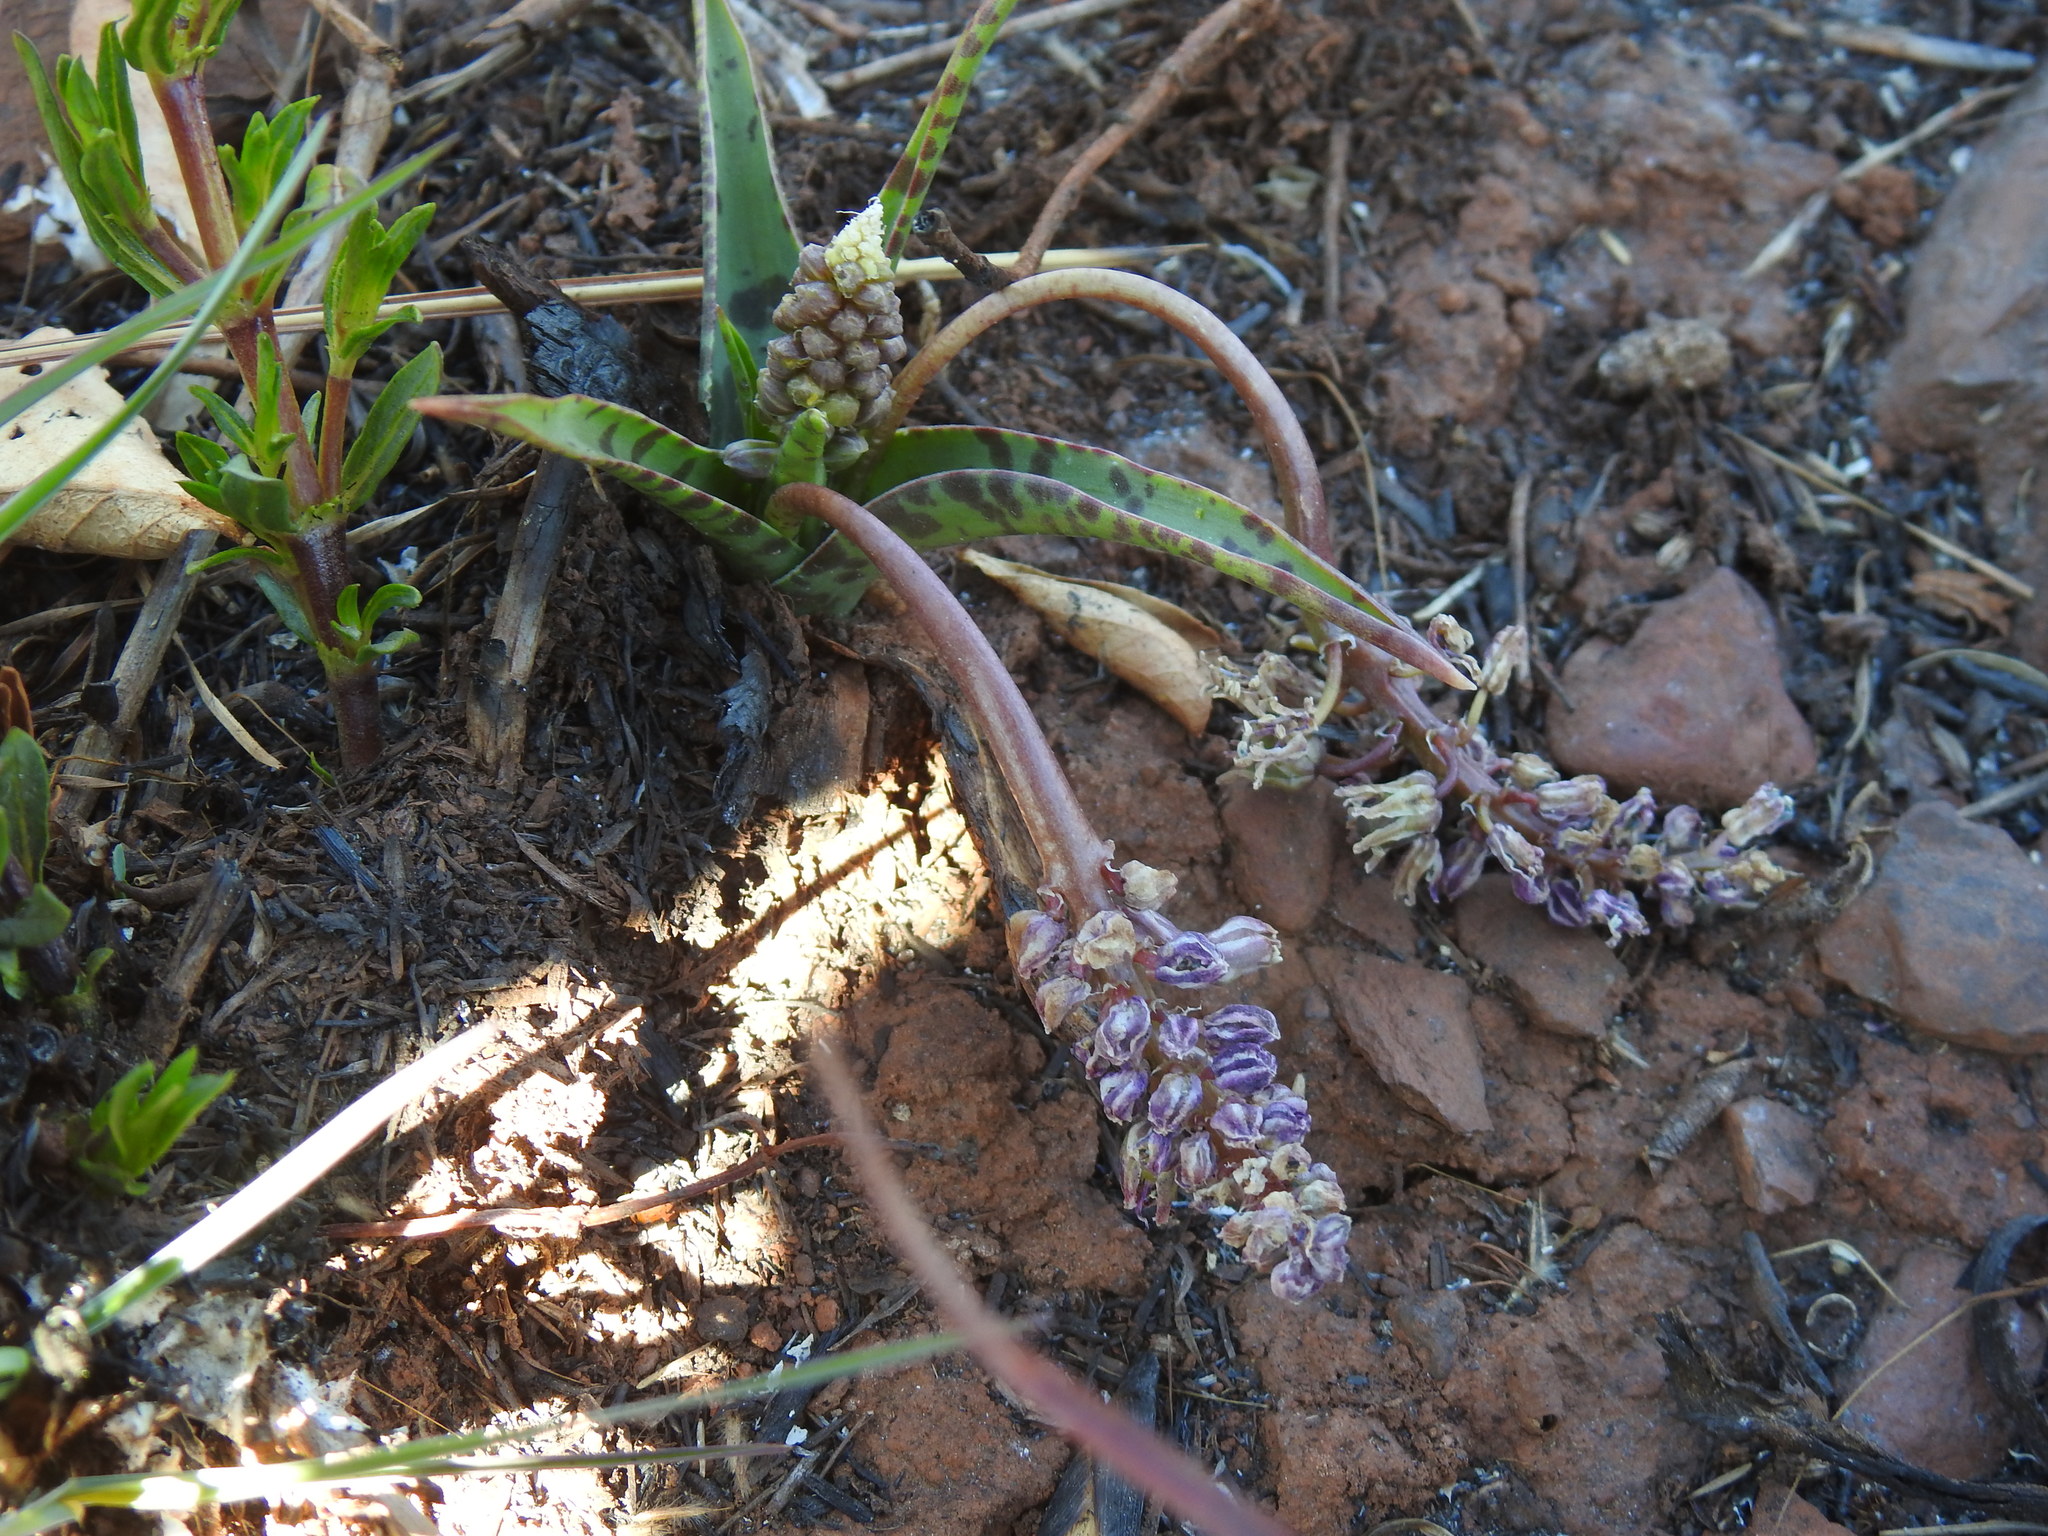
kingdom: Plantae
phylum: Tracheophyta
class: Liliopsida
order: Asparagales
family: Asparagaceae
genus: Ledebouria
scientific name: Ledebouria luteola
